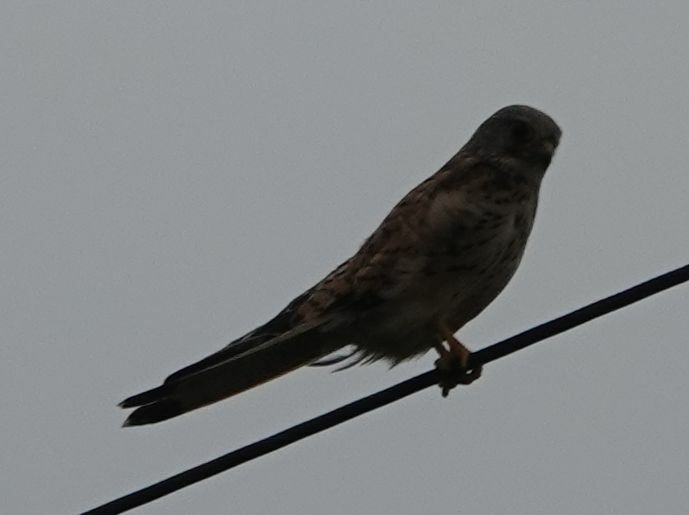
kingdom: Animalia
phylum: Chordata
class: Aves
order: Falconiformes
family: Falconidae
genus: Falco
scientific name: Falco tinnunculus
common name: Common kestrel
